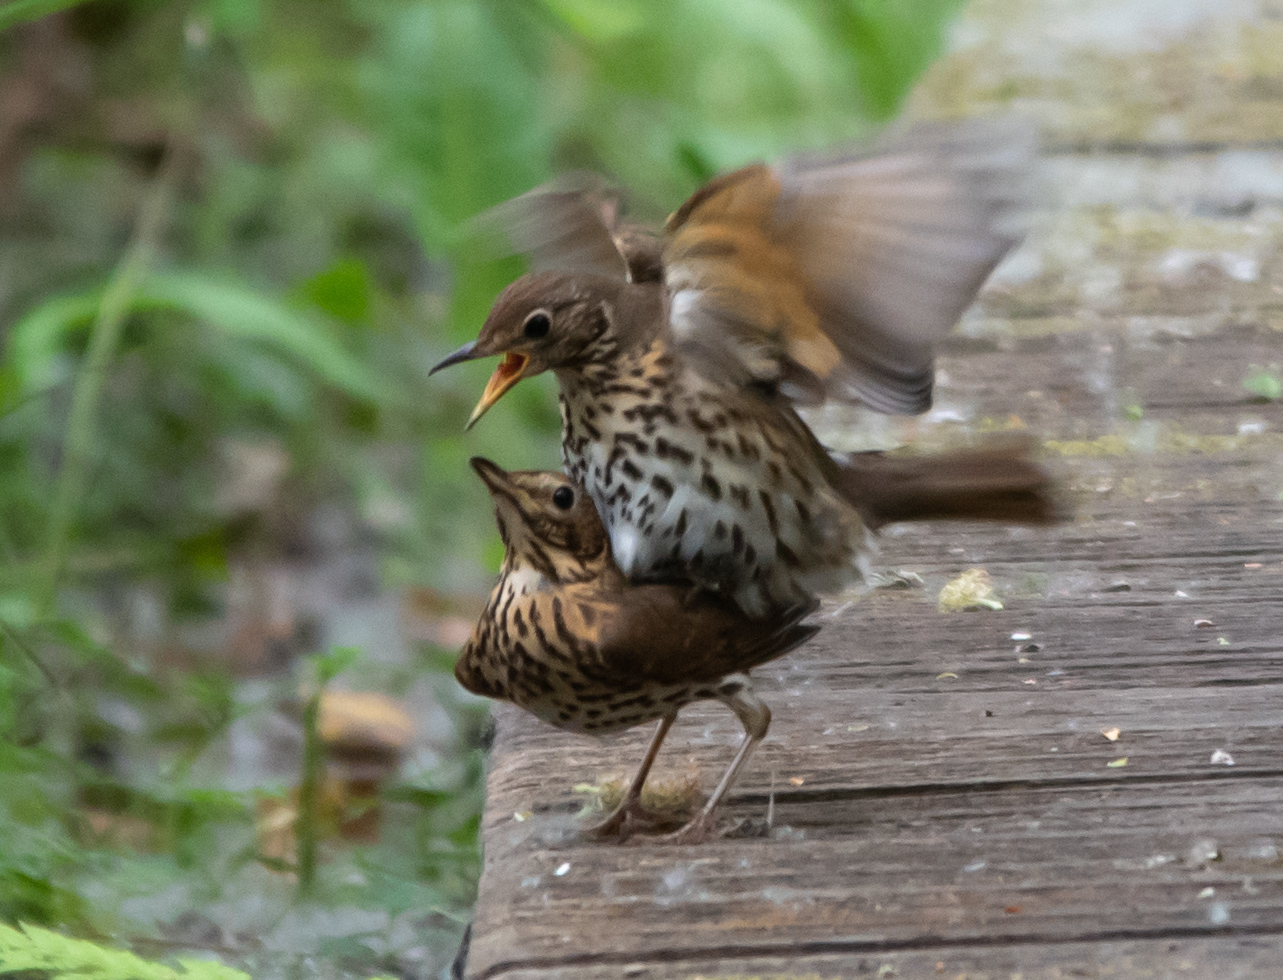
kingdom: Animalia
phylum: Chordata
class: Aves
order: Passeriformes
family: Turdidae
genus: Turdus
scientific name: Turdus philomelos
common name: Song thrush
